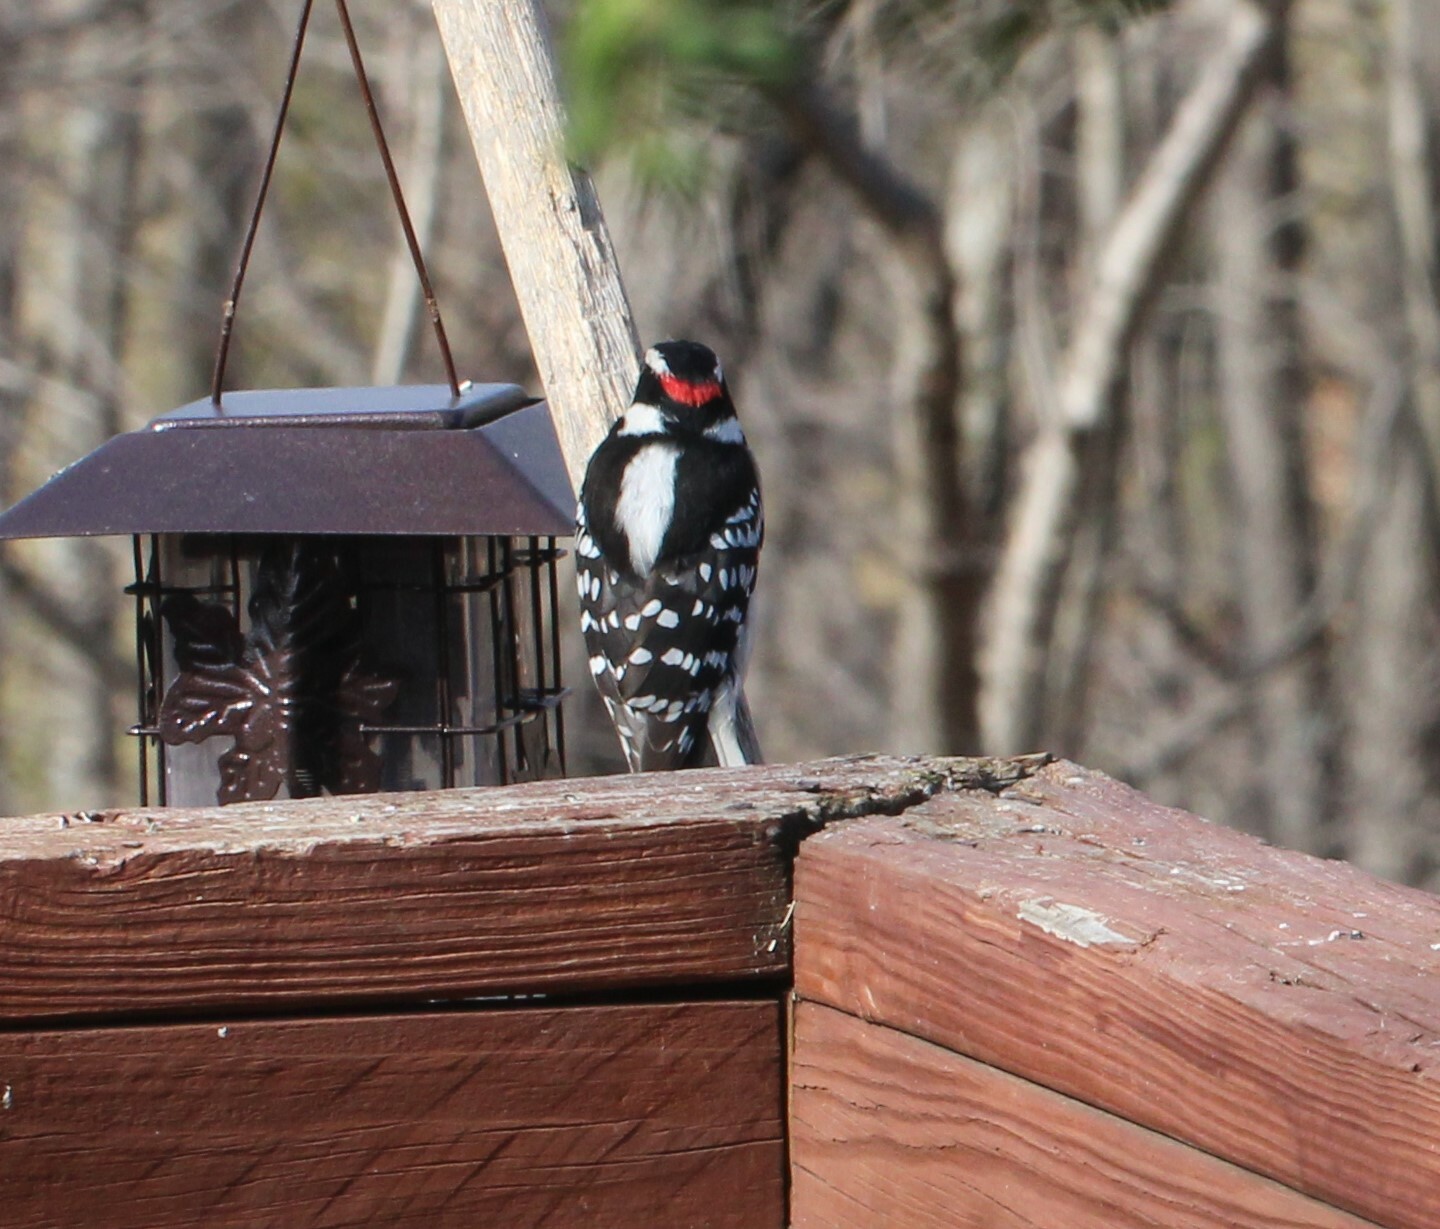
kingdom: Animalia
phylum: Chordata
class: Aves
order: Piciformes
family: Picidae
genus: Dryobates
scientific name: Dryobates pubescens
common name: Downy woodpecker
